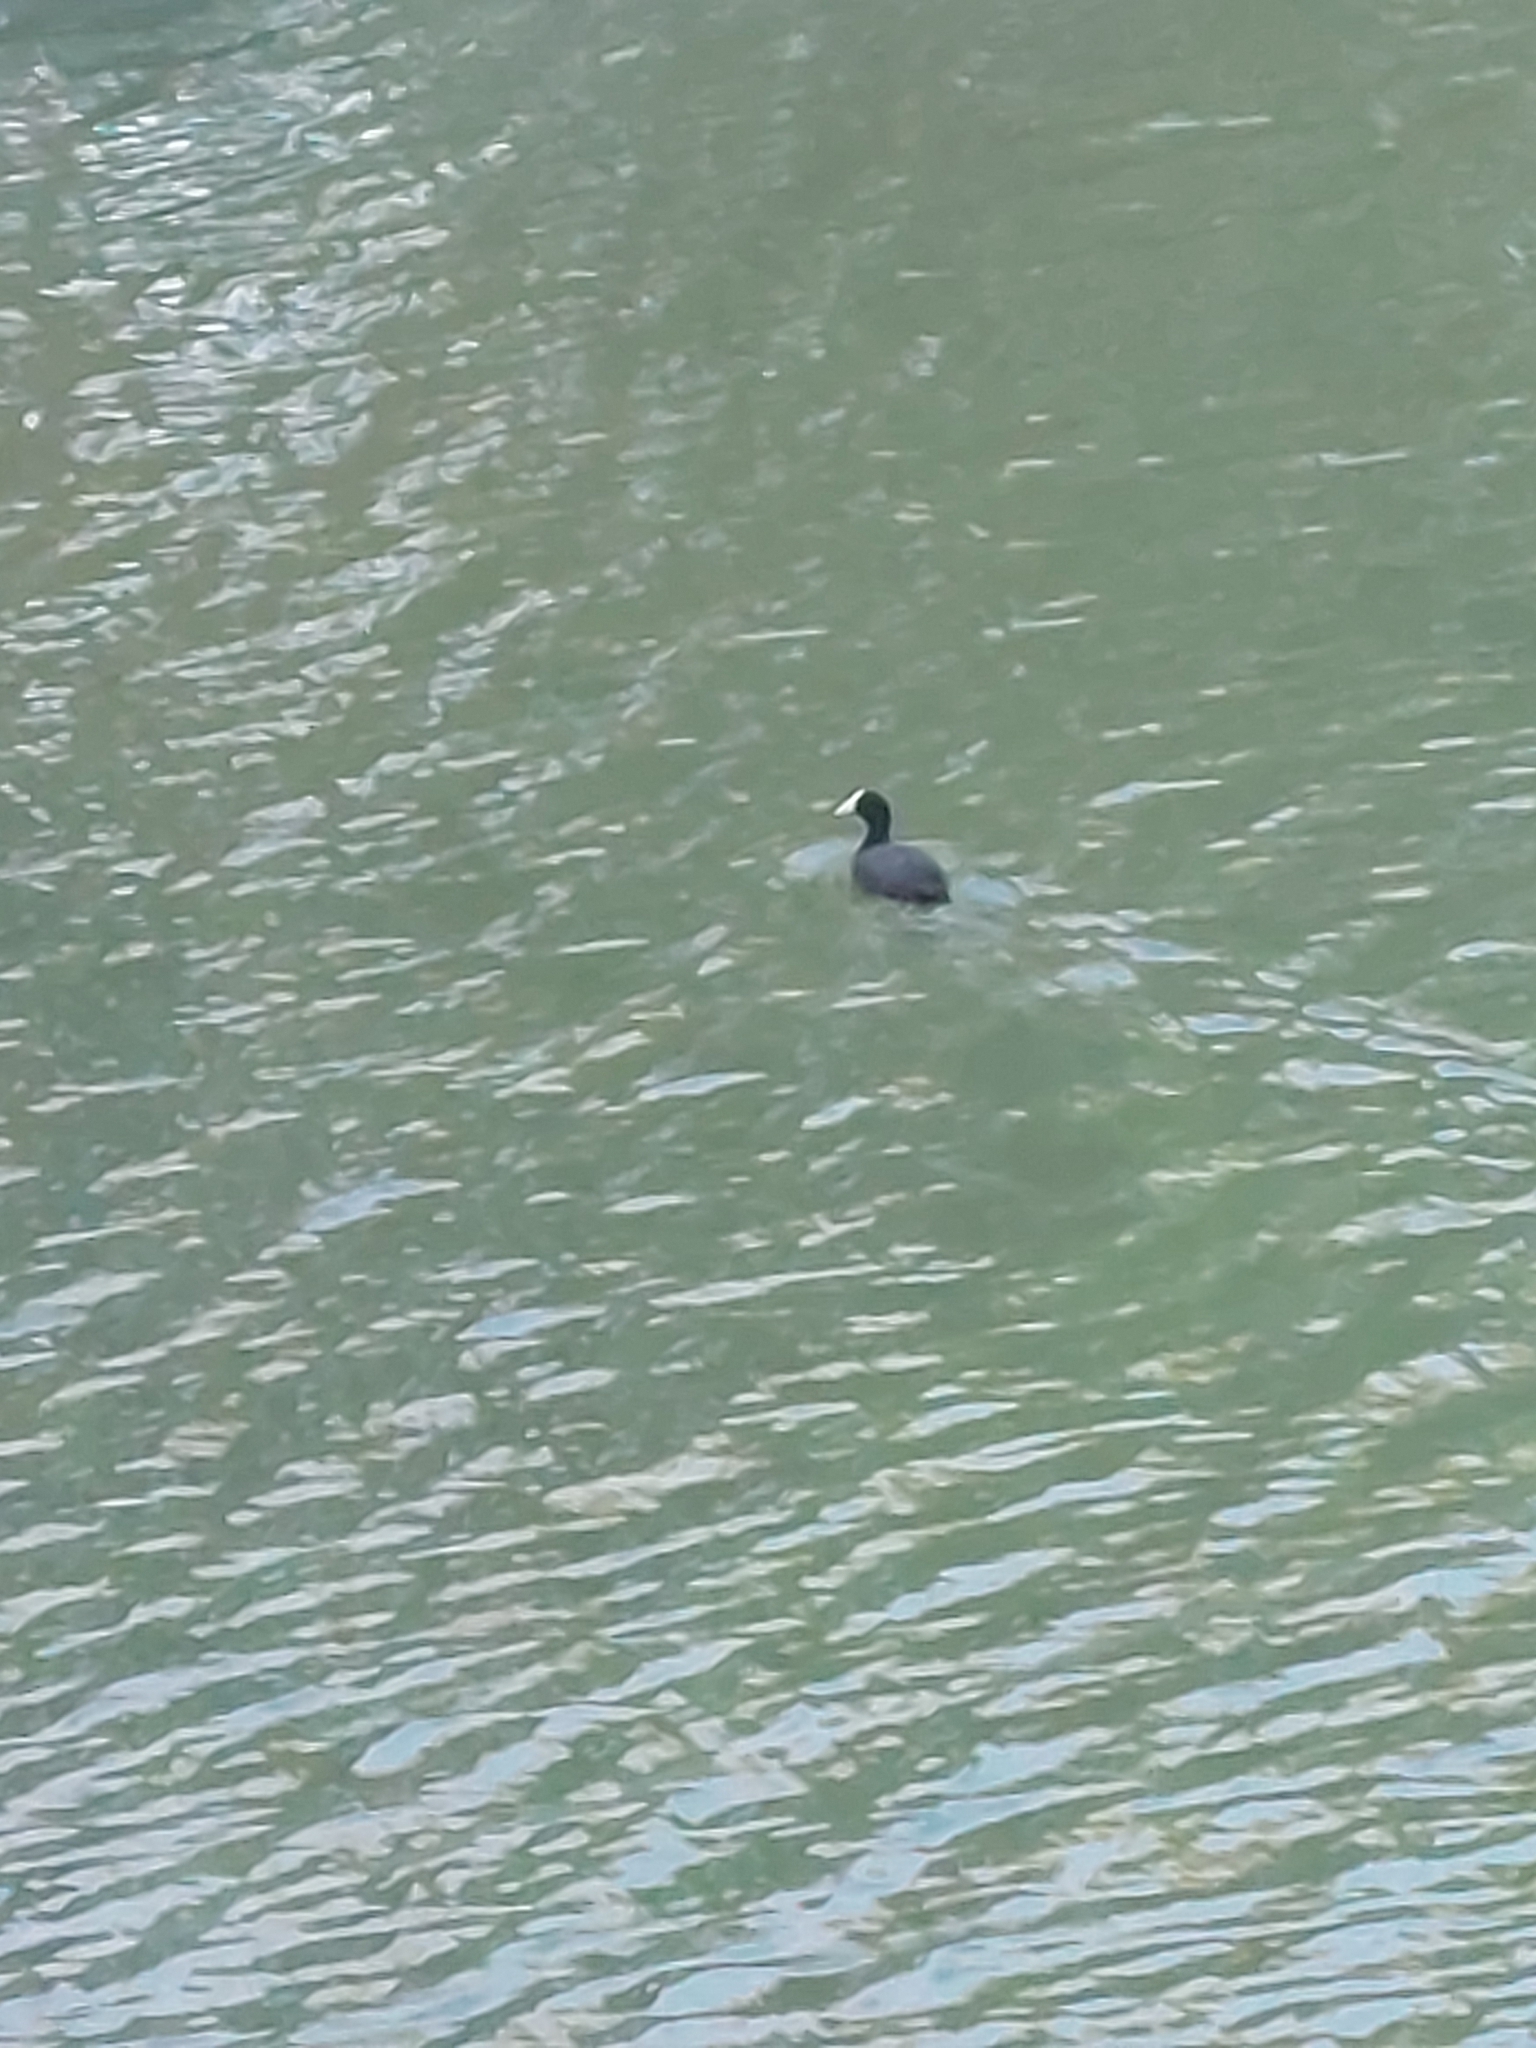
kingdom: Animalia
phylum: Chordata
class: Aves
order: Gruiformes
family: Rallidae
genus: Fulica
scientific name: Fulica cristata
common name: Red-knobbed coot
